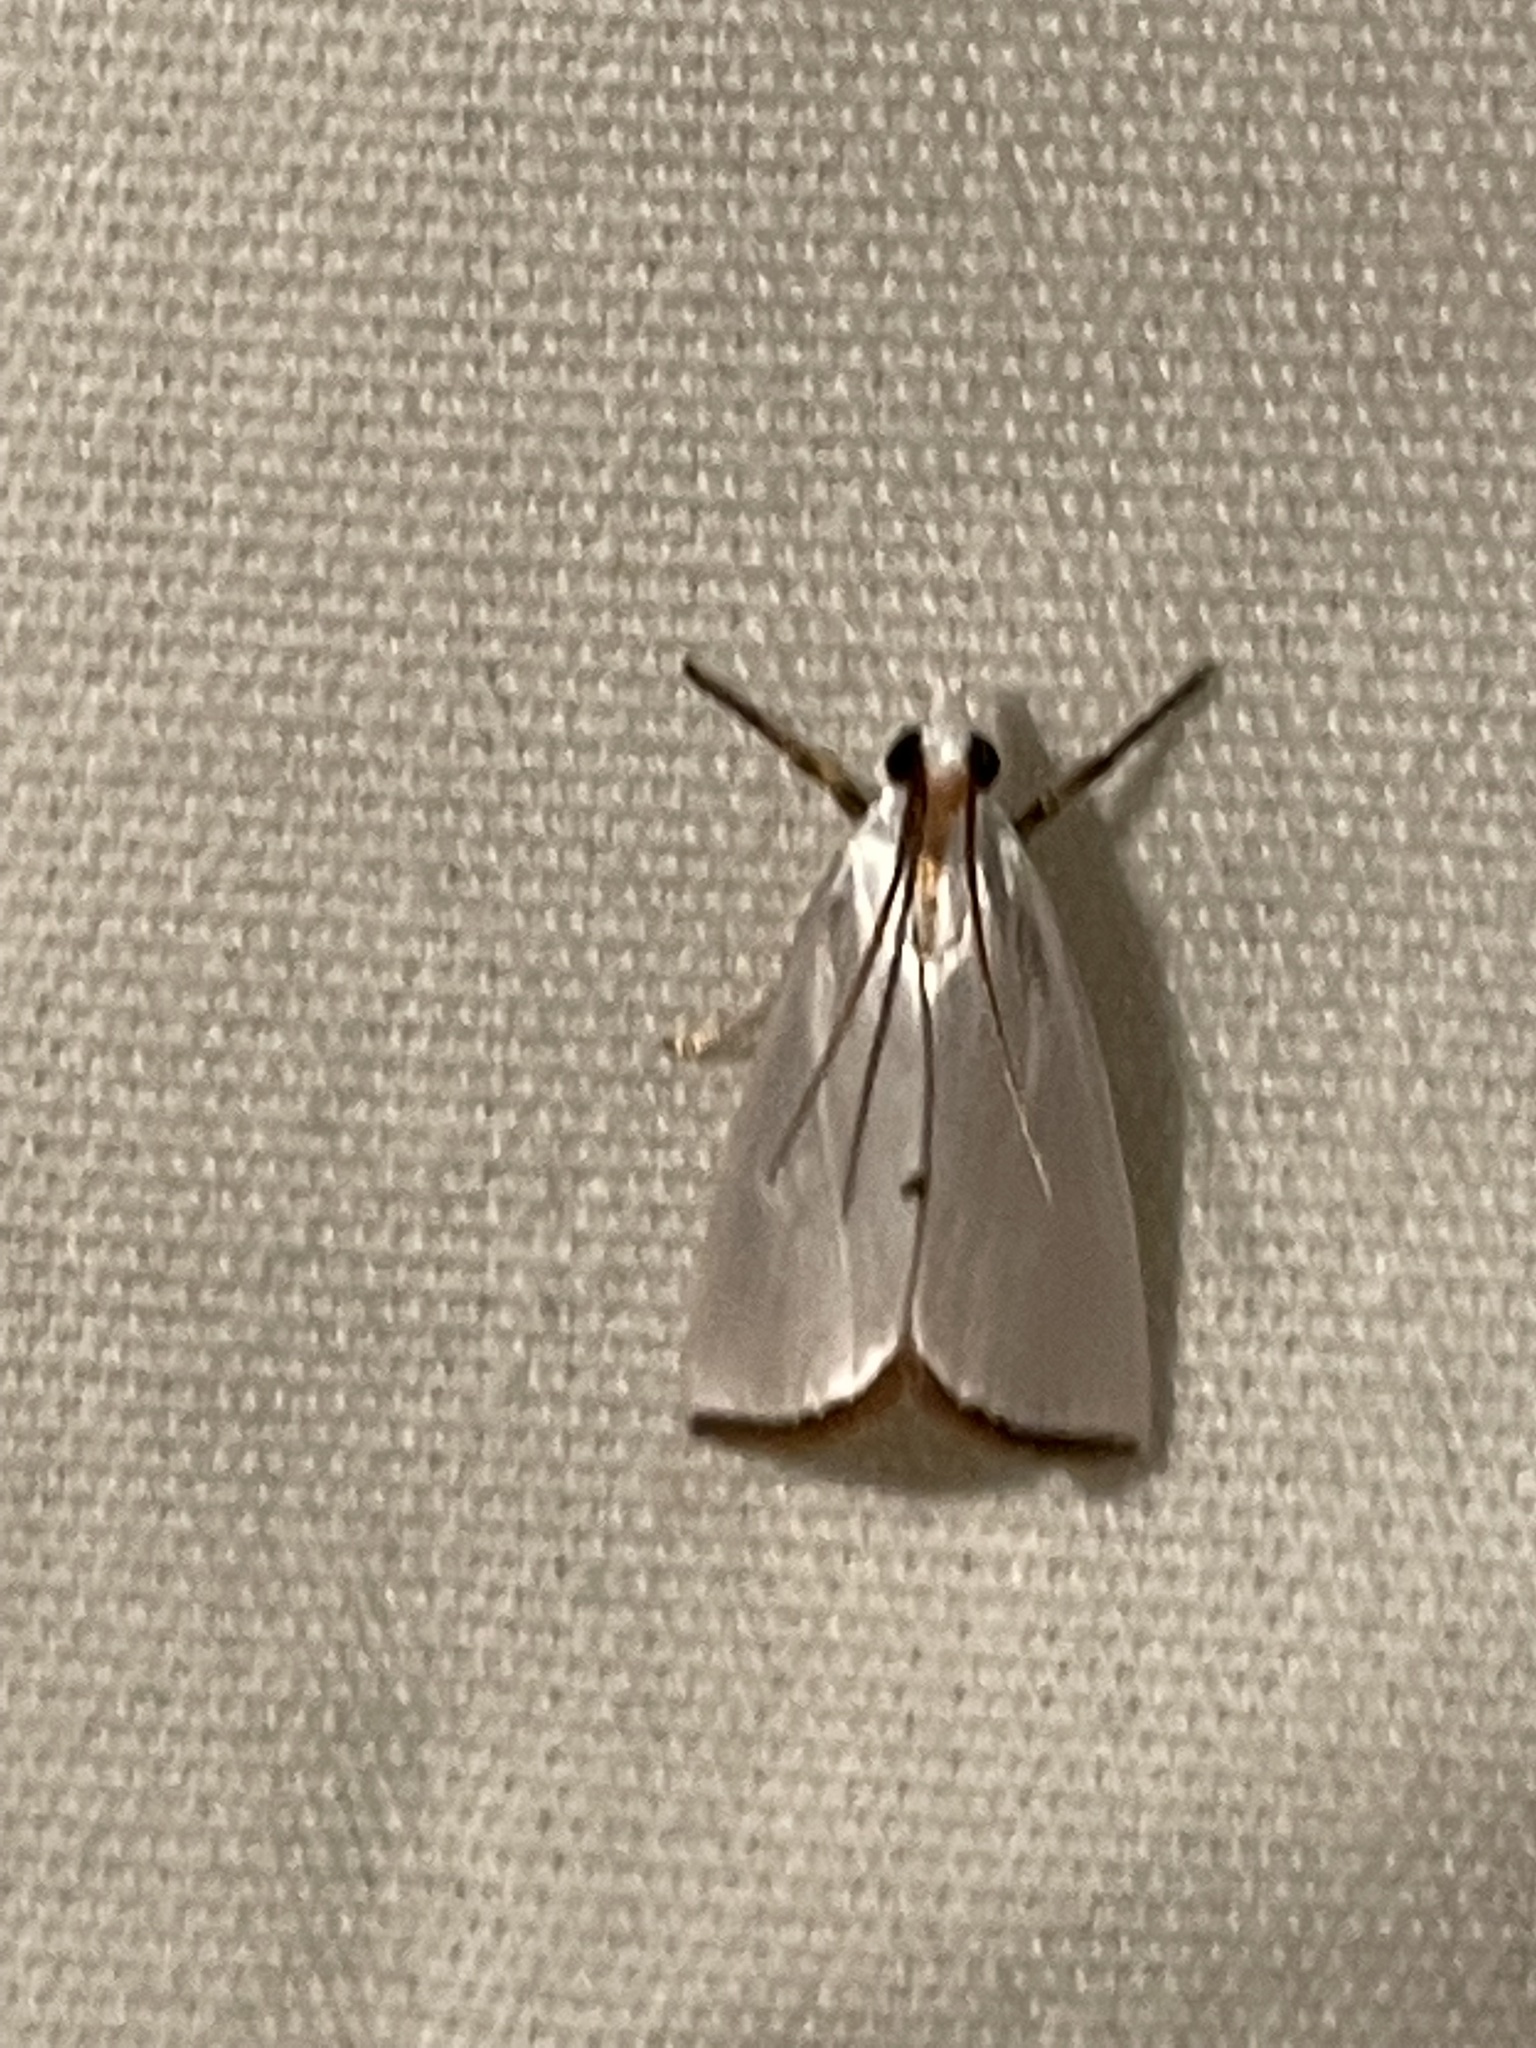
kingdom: Animalia
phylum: Arthropoda
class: Insecta
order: Lepidoptera
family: Crambidae
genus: Argyria
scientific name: Argyria nivalis
